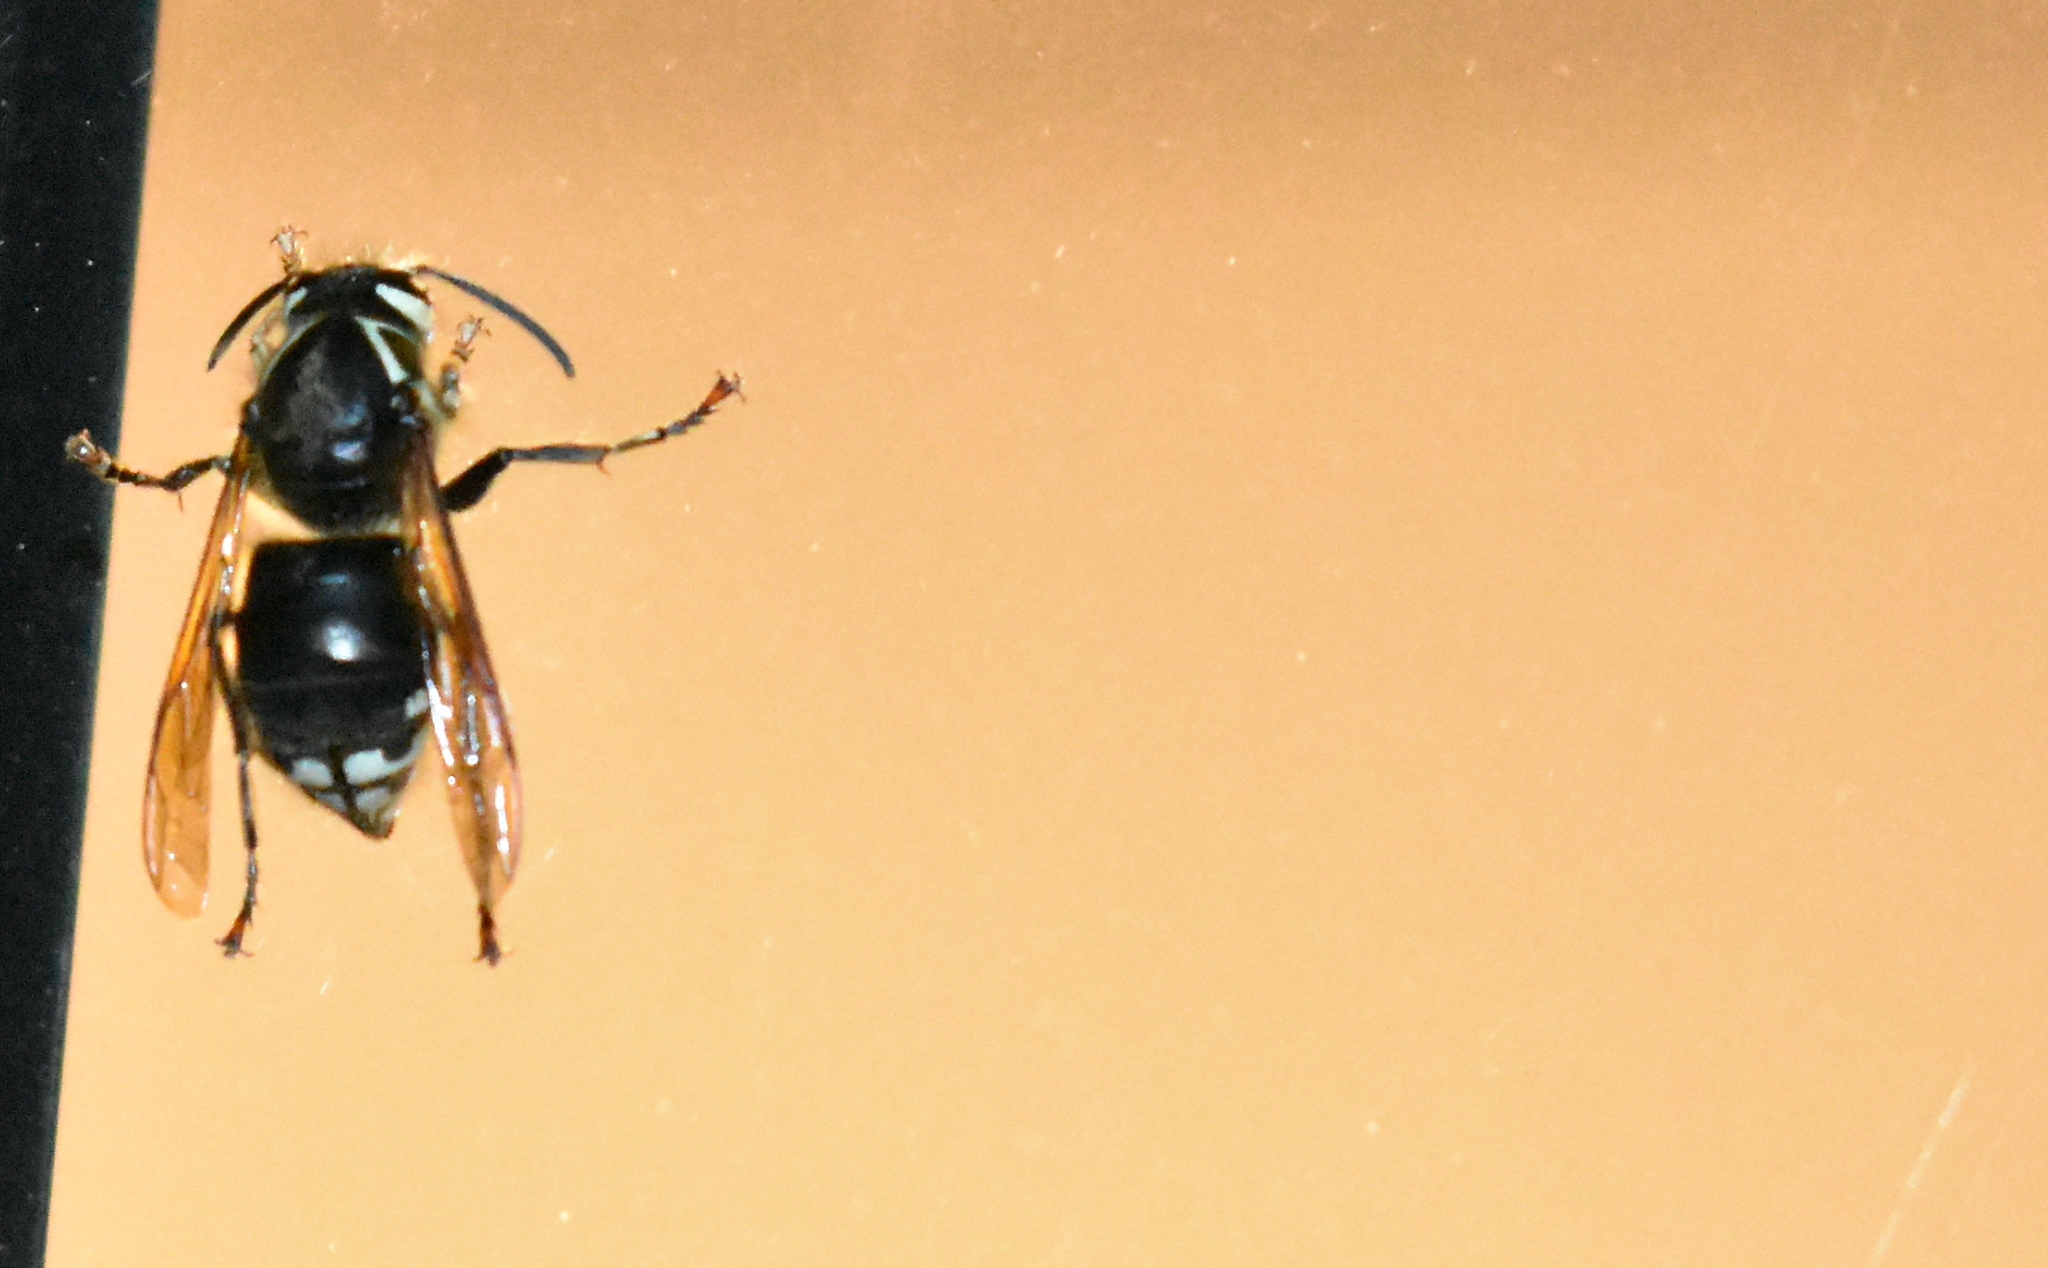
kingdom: Animalia
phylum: Arthropoda
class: Insecta
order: Hymenoptera
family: Vespidae
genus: Dolichovespula
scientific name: Dolichovespula maculata
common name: Bald-faced hornet
